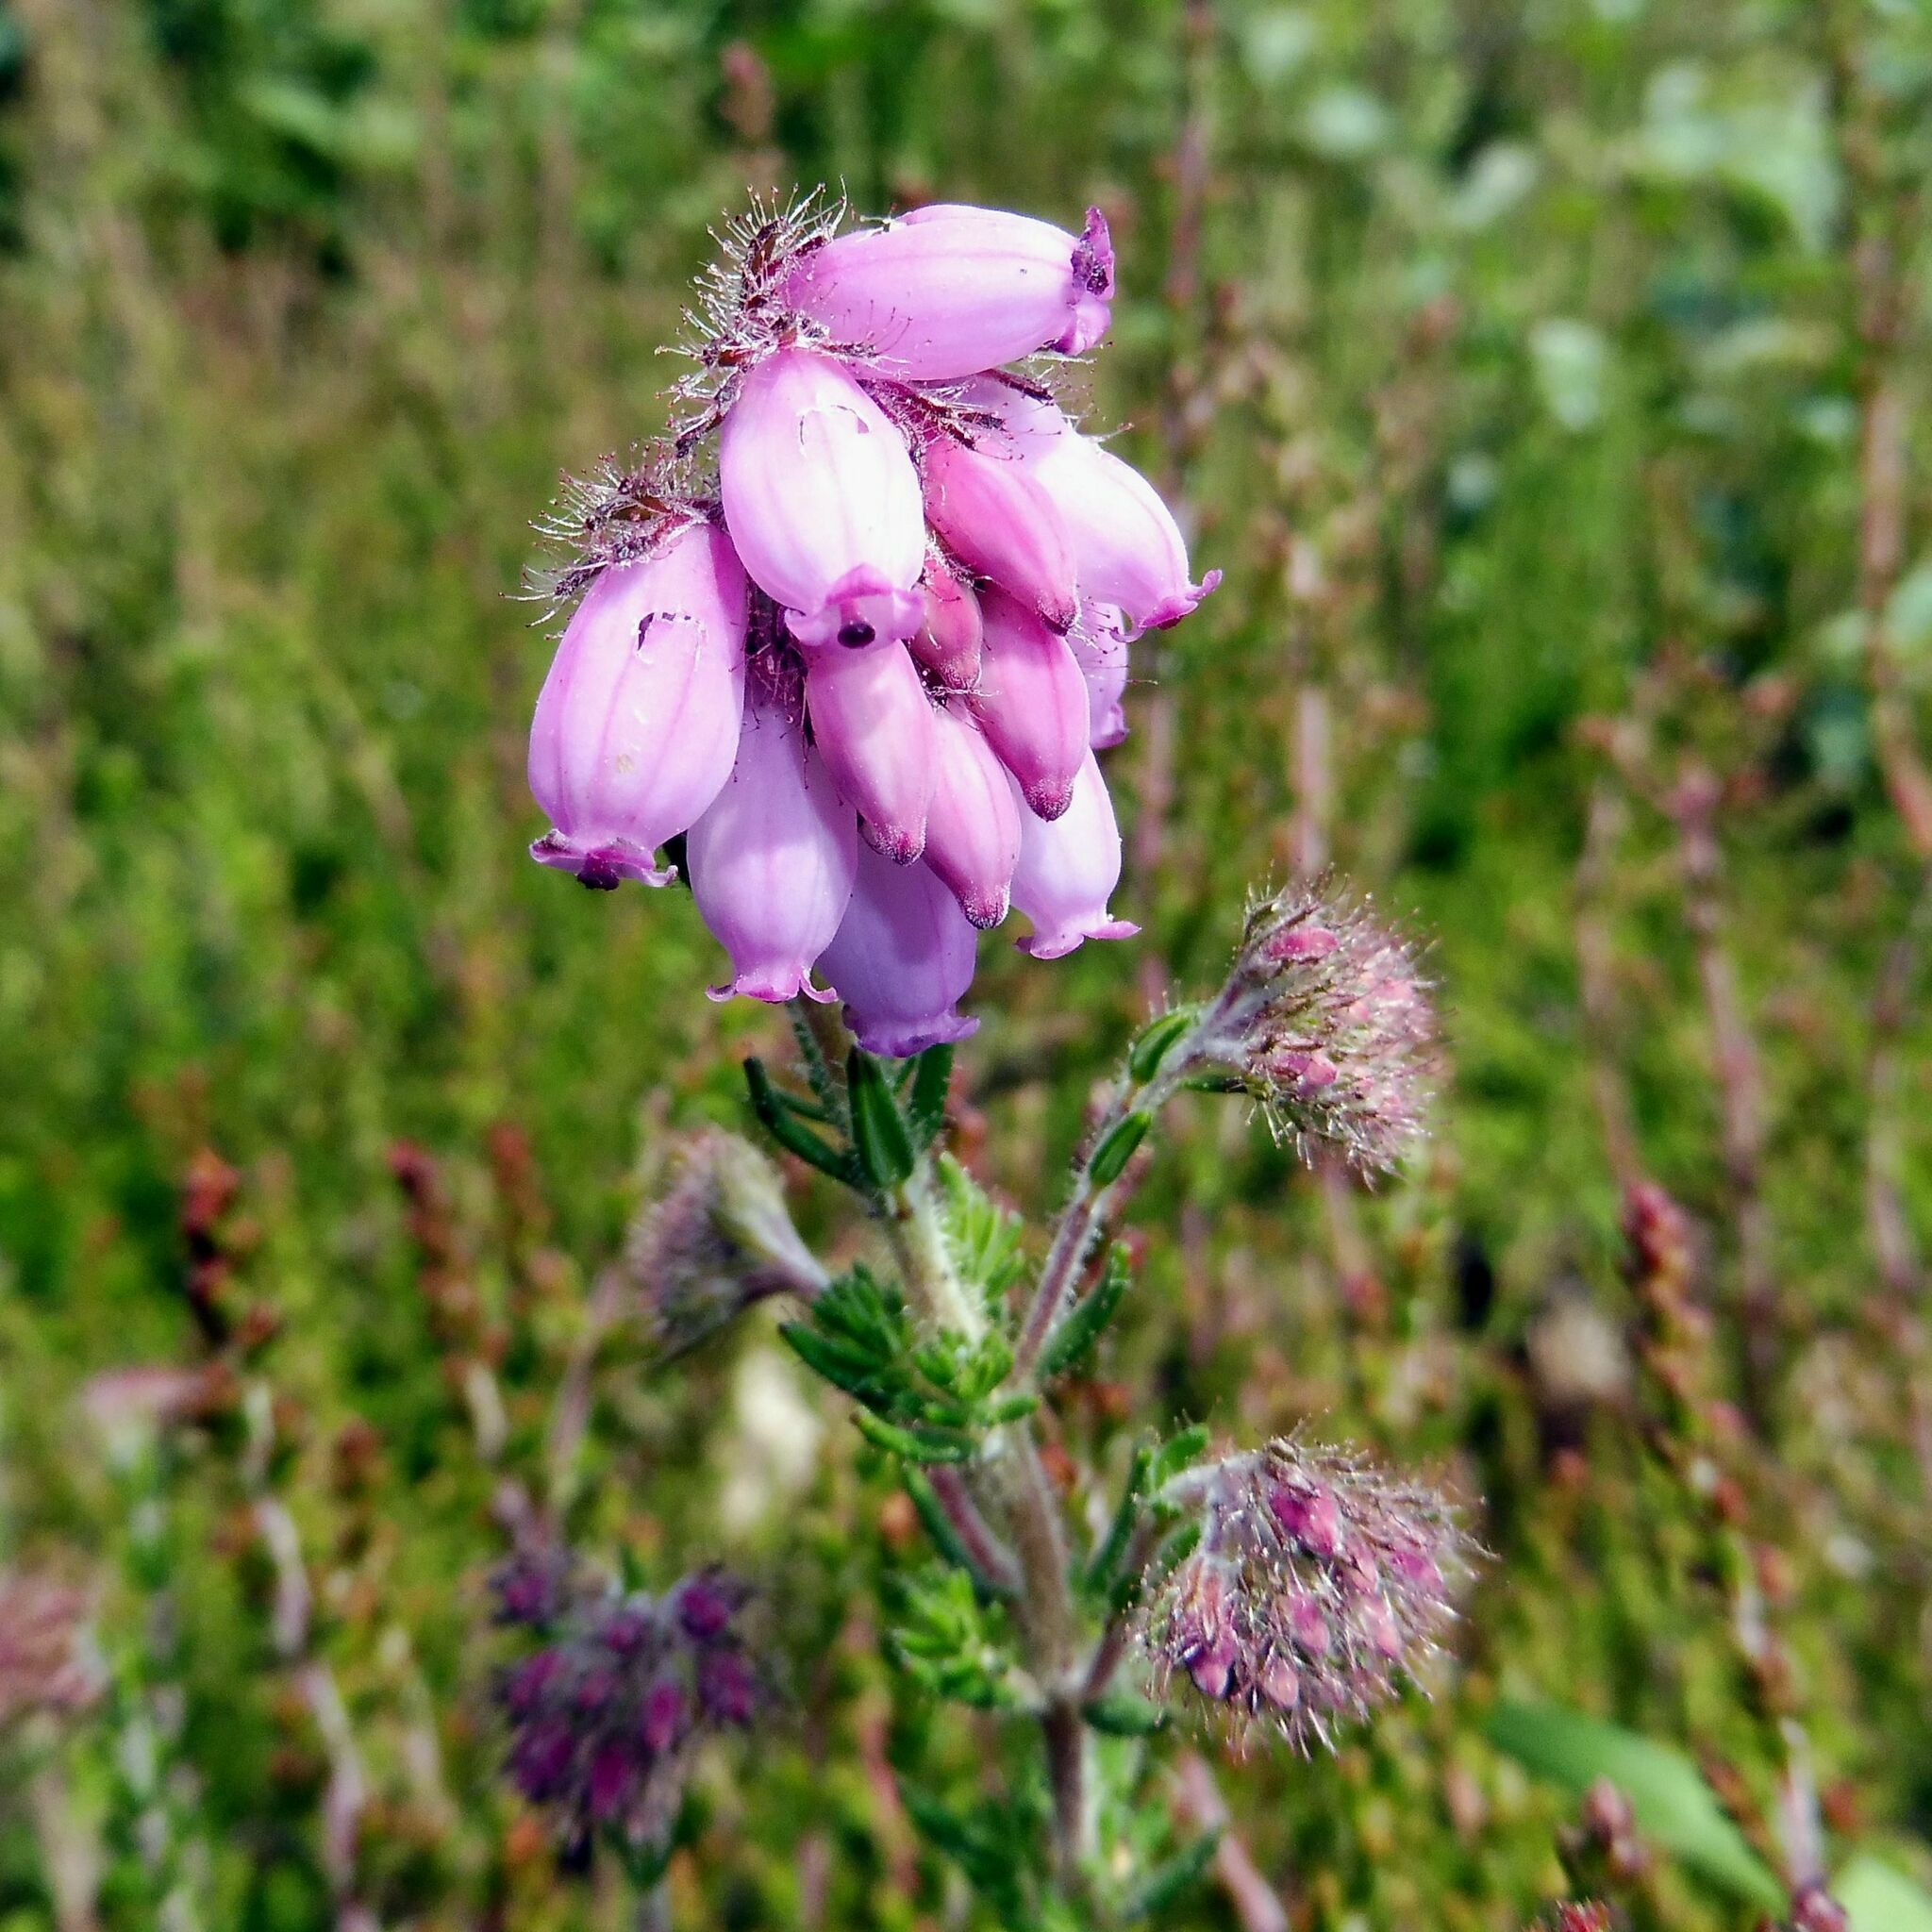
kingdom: Plantae
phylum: Tracheophyta
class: Magnoliopsida
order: Ericales
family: Ericaceae
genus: Erica
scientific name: Erica tetralix
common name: Cross-leaved heath
